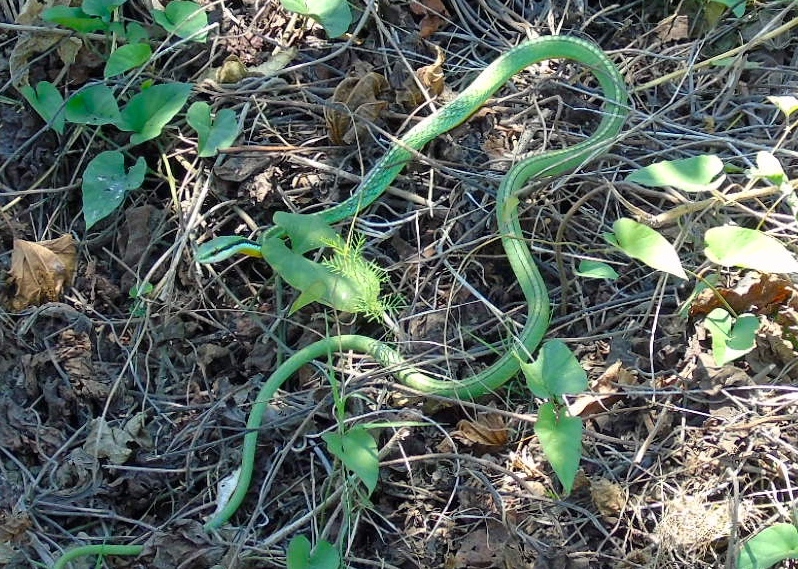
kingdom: Animalia
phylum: Chordata
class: Squamata
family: Colubridae
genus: Leptophis
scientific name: Leptophis diplotropis
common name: Pacific coast parrot snake
